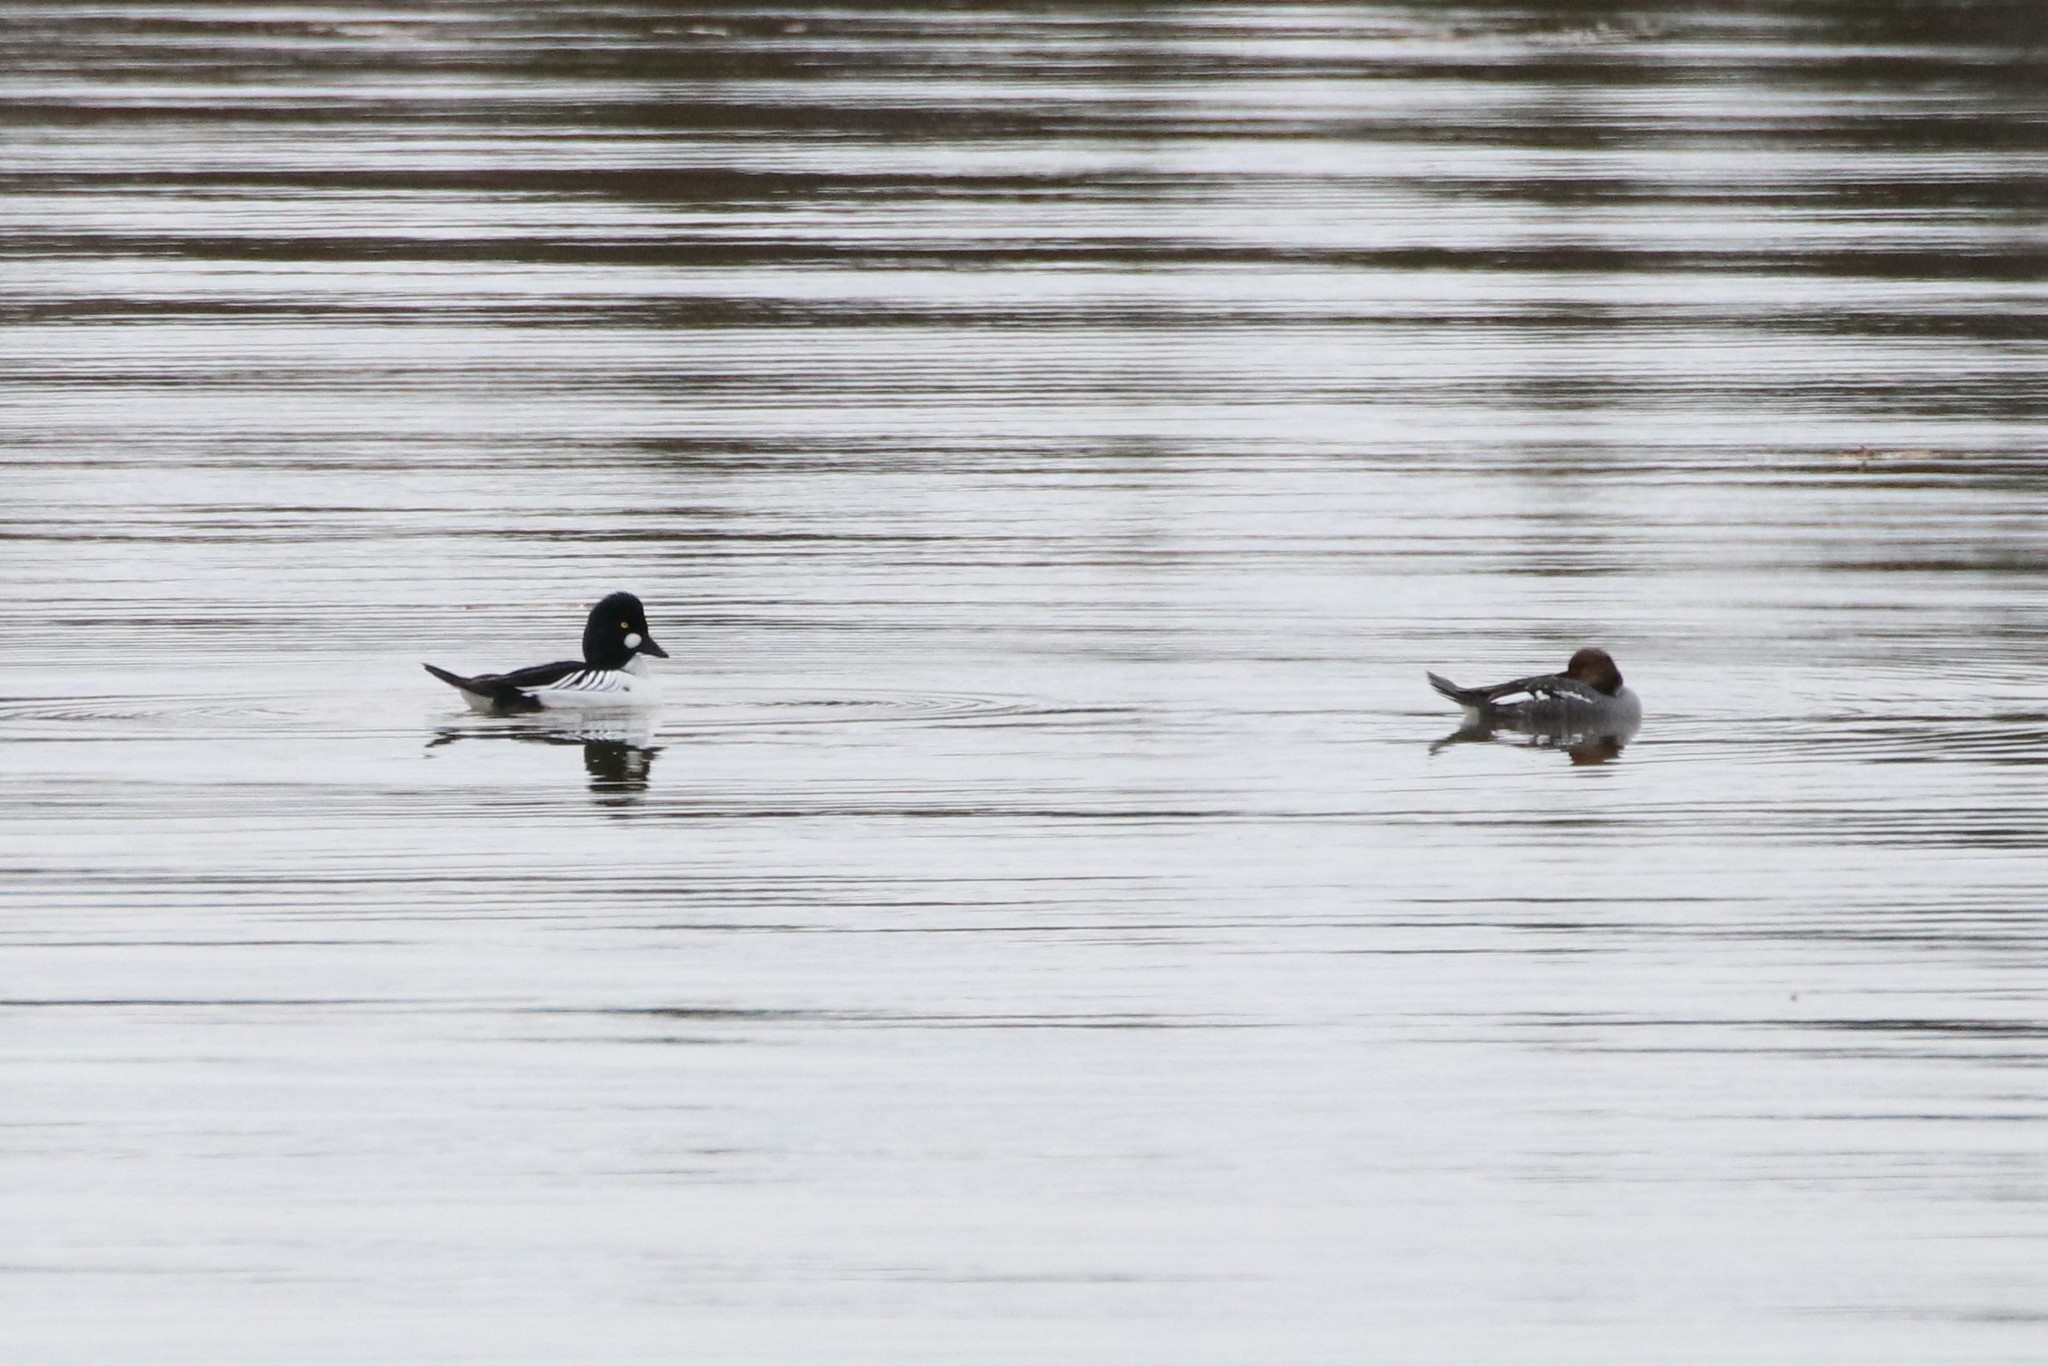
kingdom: Animalia
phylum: Chordata
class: Aves
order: Anseriformes
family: Anatidae
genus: Bucephala
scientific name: Bucephala clangula
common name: Common goldeneye
